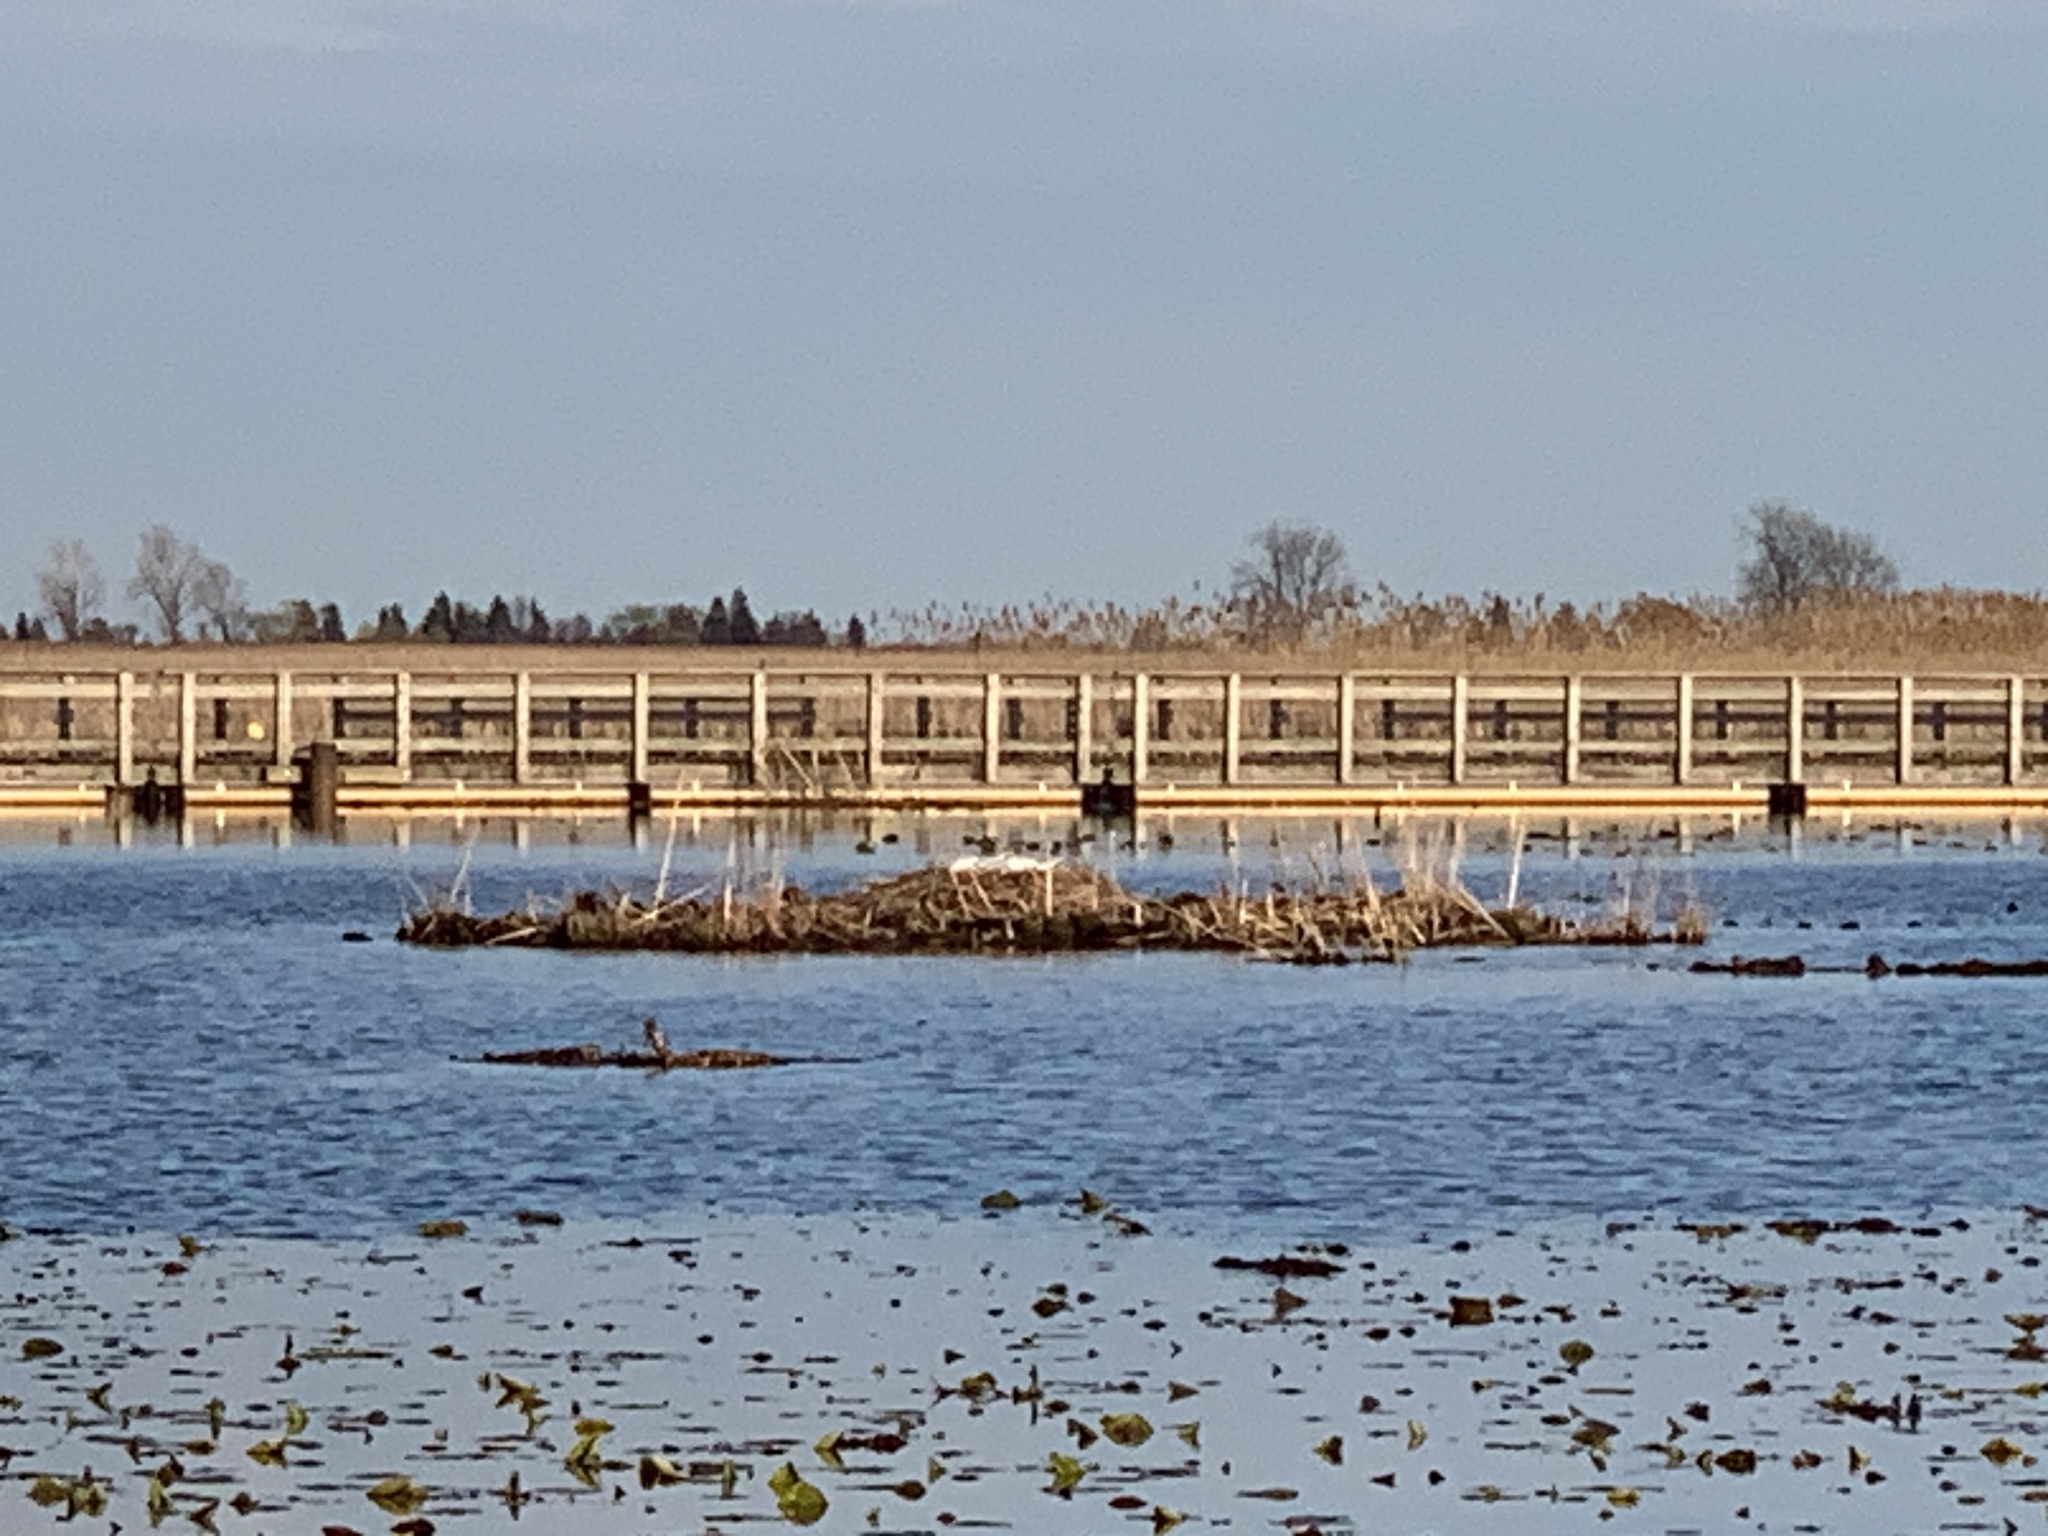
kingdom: Animalia
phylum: Chordata
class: Aves
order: Anseriformes
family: Anatidae
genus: Cygnus
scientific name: Cygnus olor
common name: Mute swan
